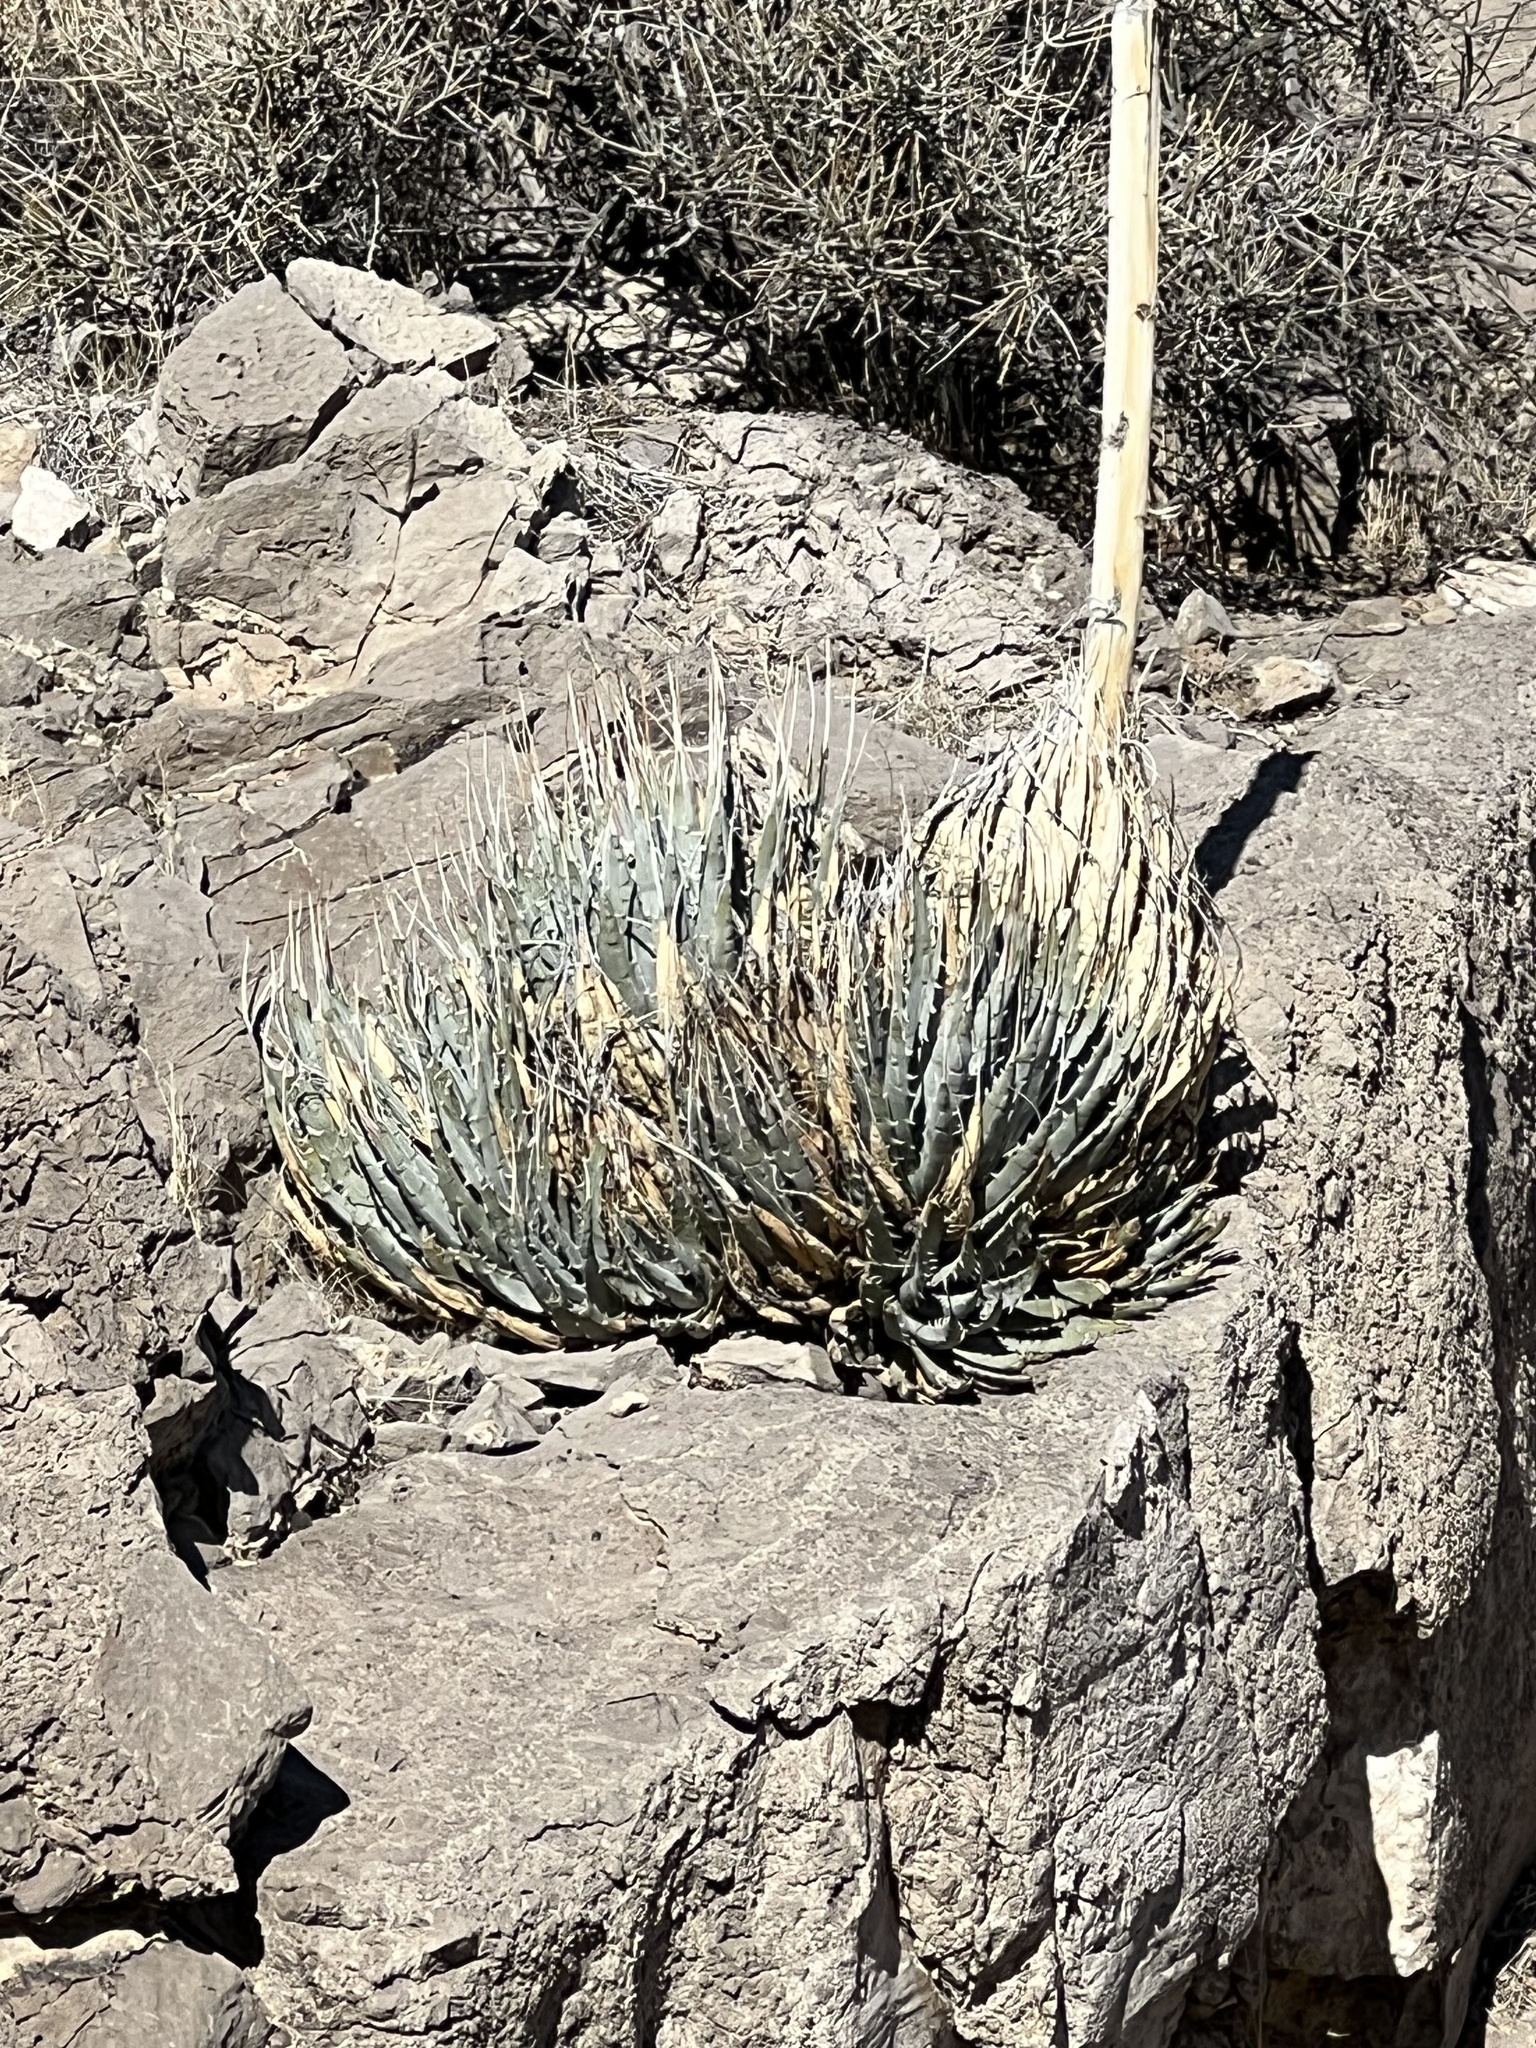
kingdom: Plantae
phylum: Tracheophyta
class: Liliopsida
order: Asparagales
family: Asparagaceae
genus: Agave
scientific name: Agave utahensis
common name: Utah agave
